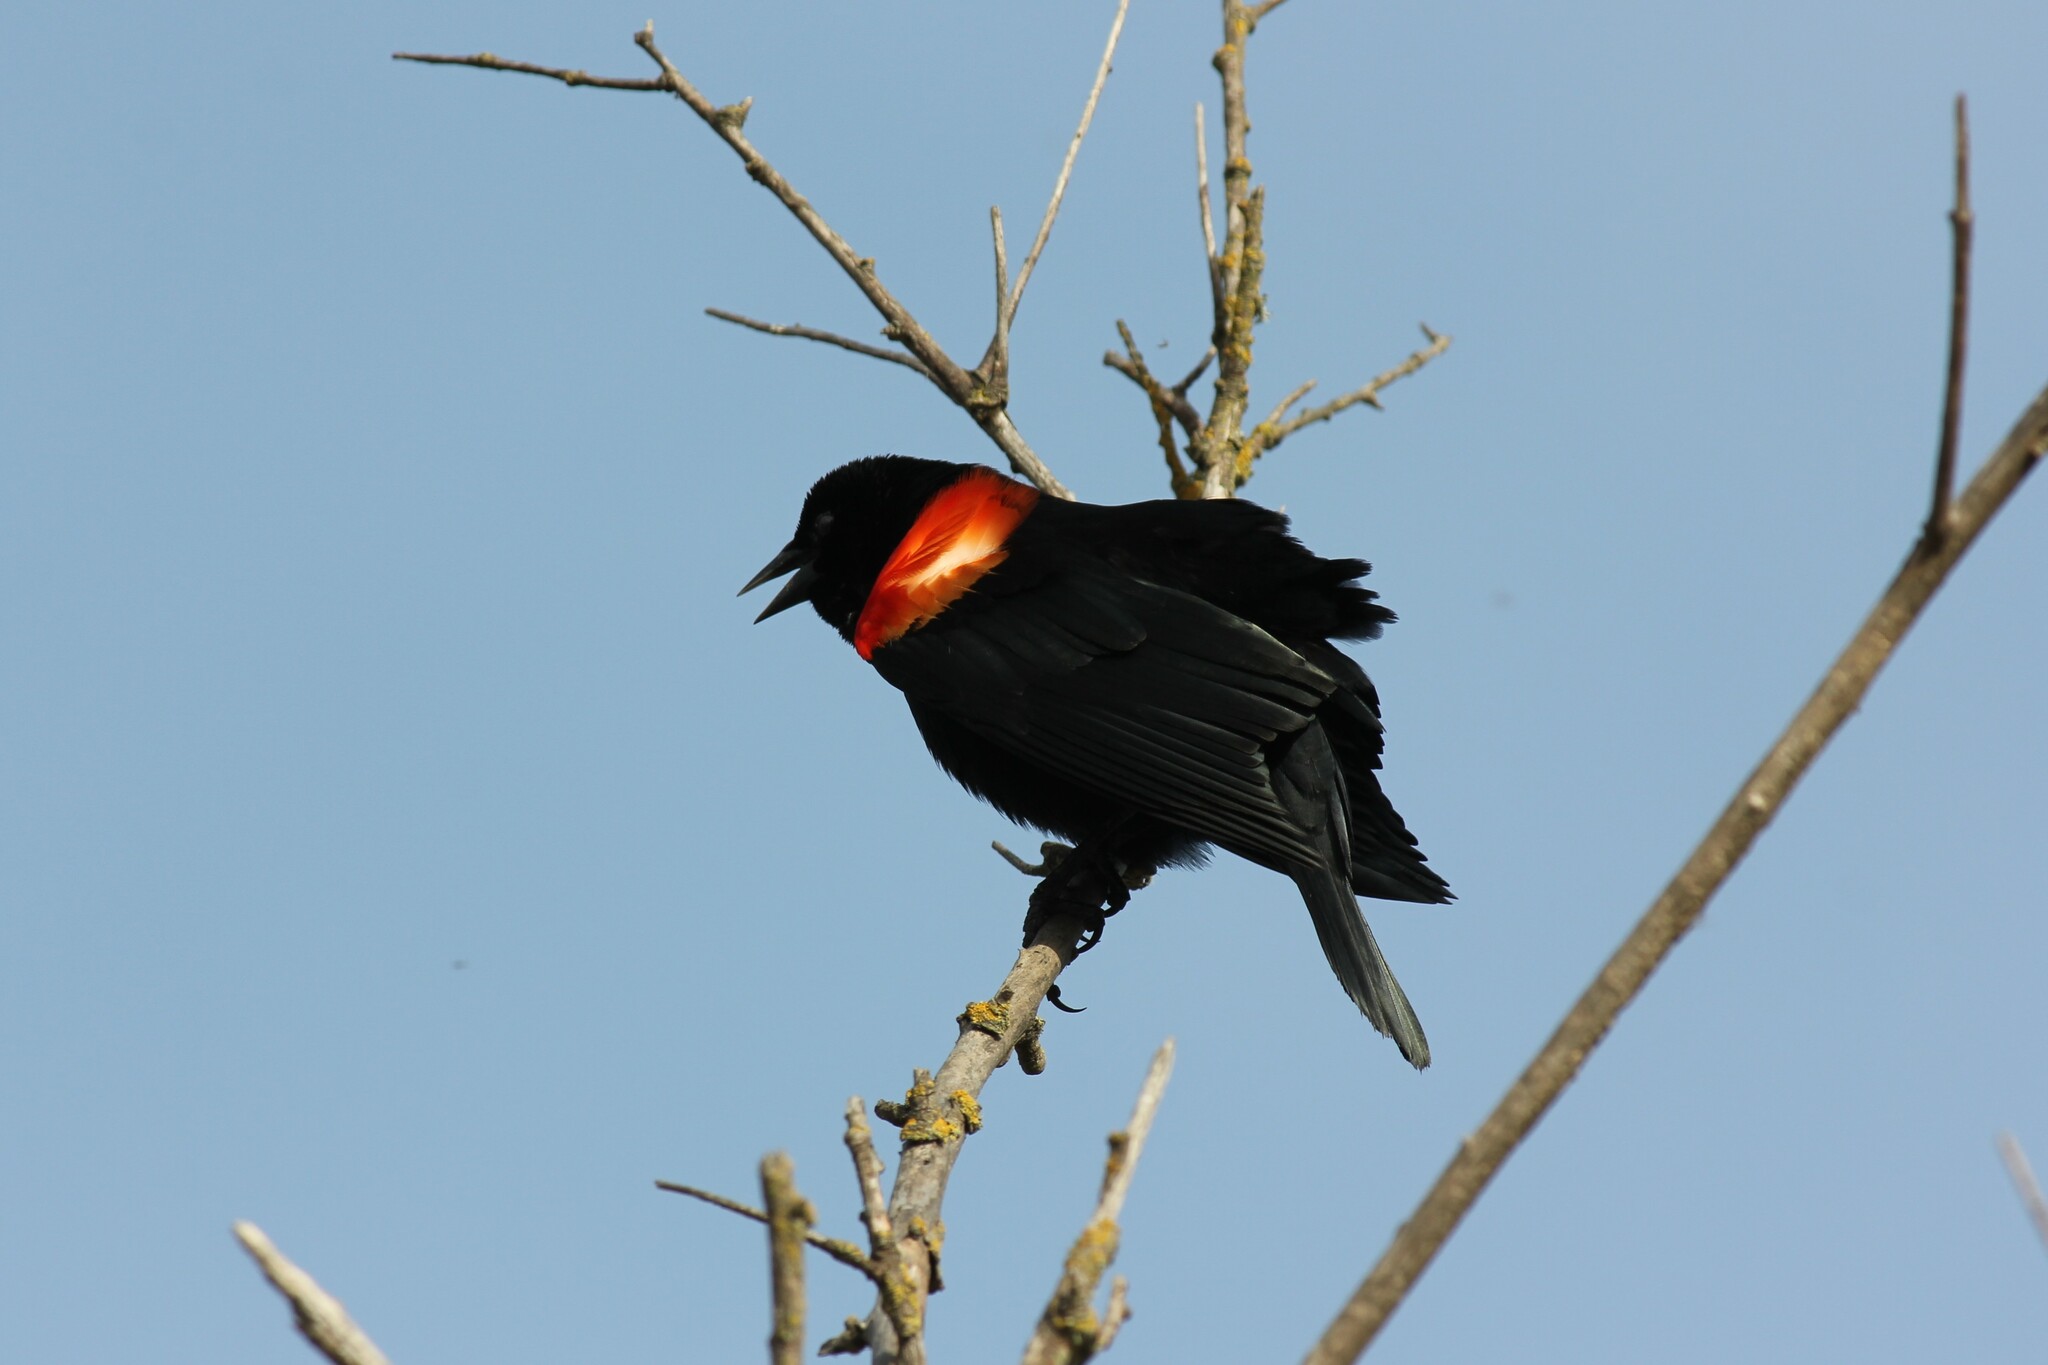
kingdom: Animalia
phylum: Chordata
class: Aves
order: Passeriformes
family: Icteridae
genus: Agelaius
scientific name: Agelaius phoeniceus
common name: Red-winged blackbird
